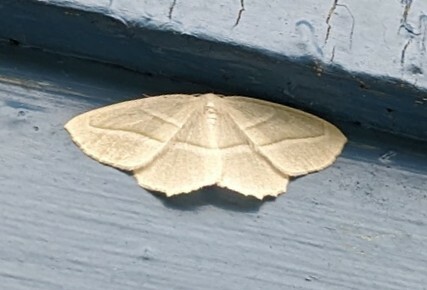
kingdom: Animalia
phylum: Arthropoda
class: Insecta
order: Lepidoptera
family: Geometridae
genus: Campaea
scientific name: Campaea perlata
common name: Fringed looper
